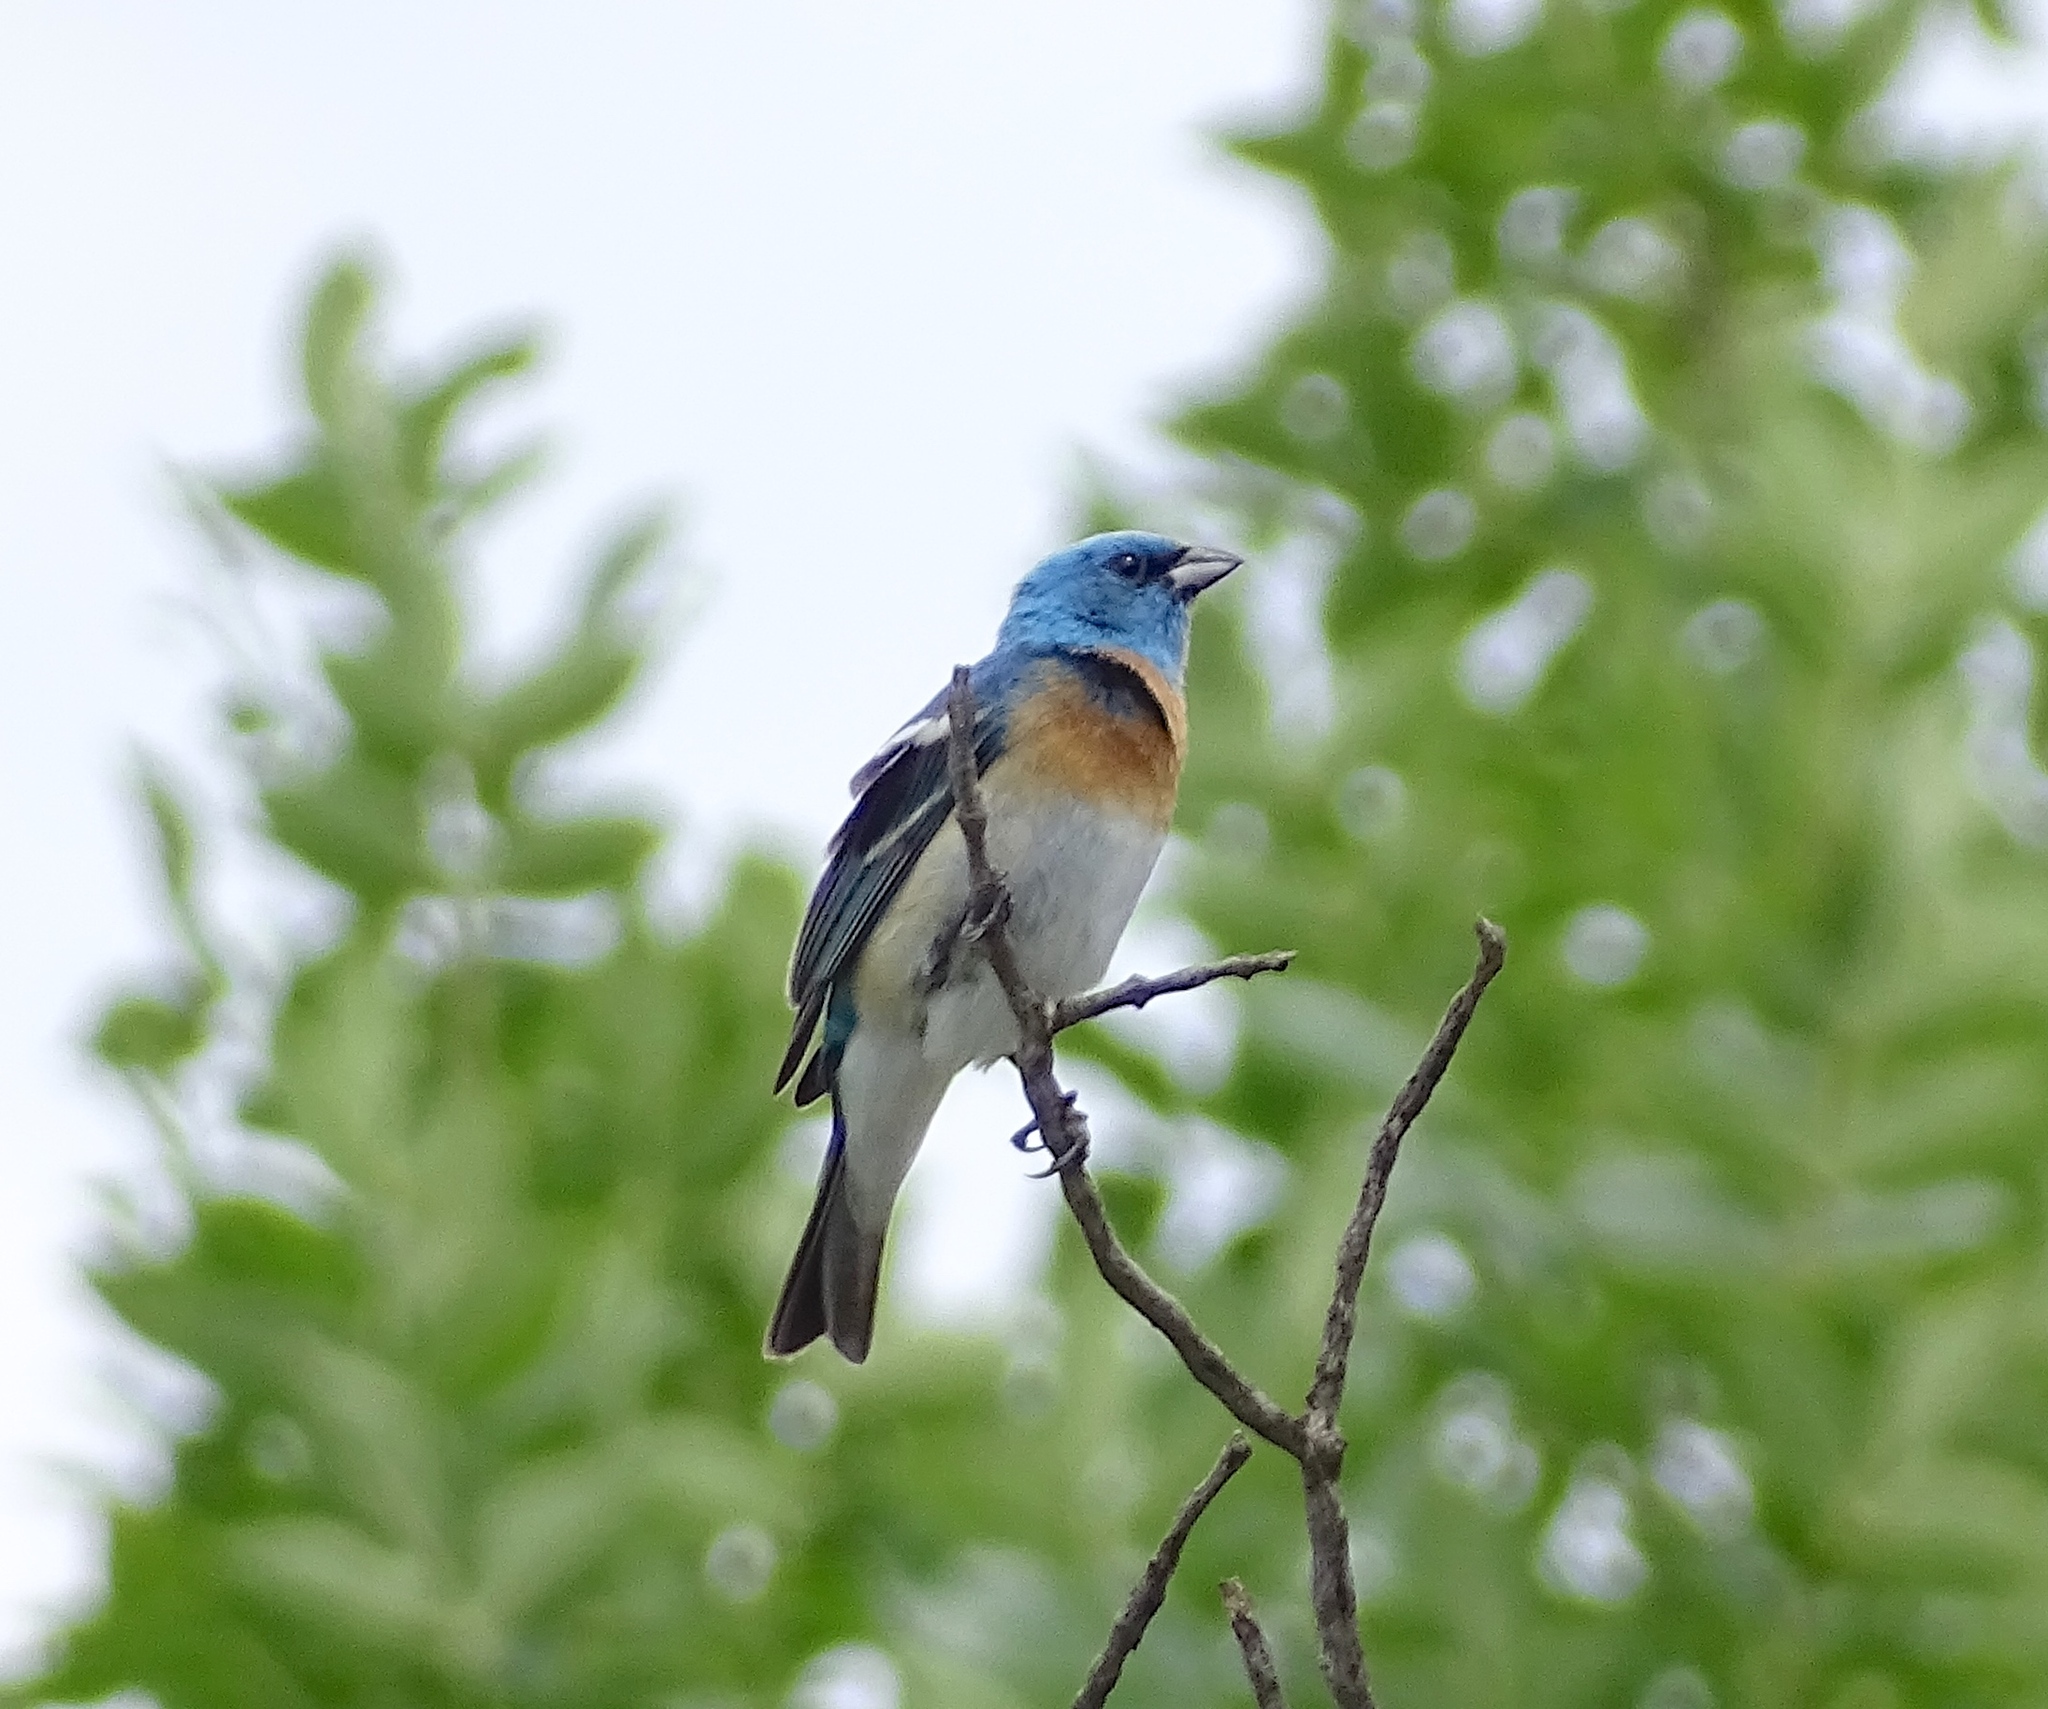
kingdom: Animalia
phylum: Chordata
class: Aves
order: Passeriformes
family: Cardinalidae
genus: Passerina
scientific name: Passerina amoena
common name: Lazuli bunting
